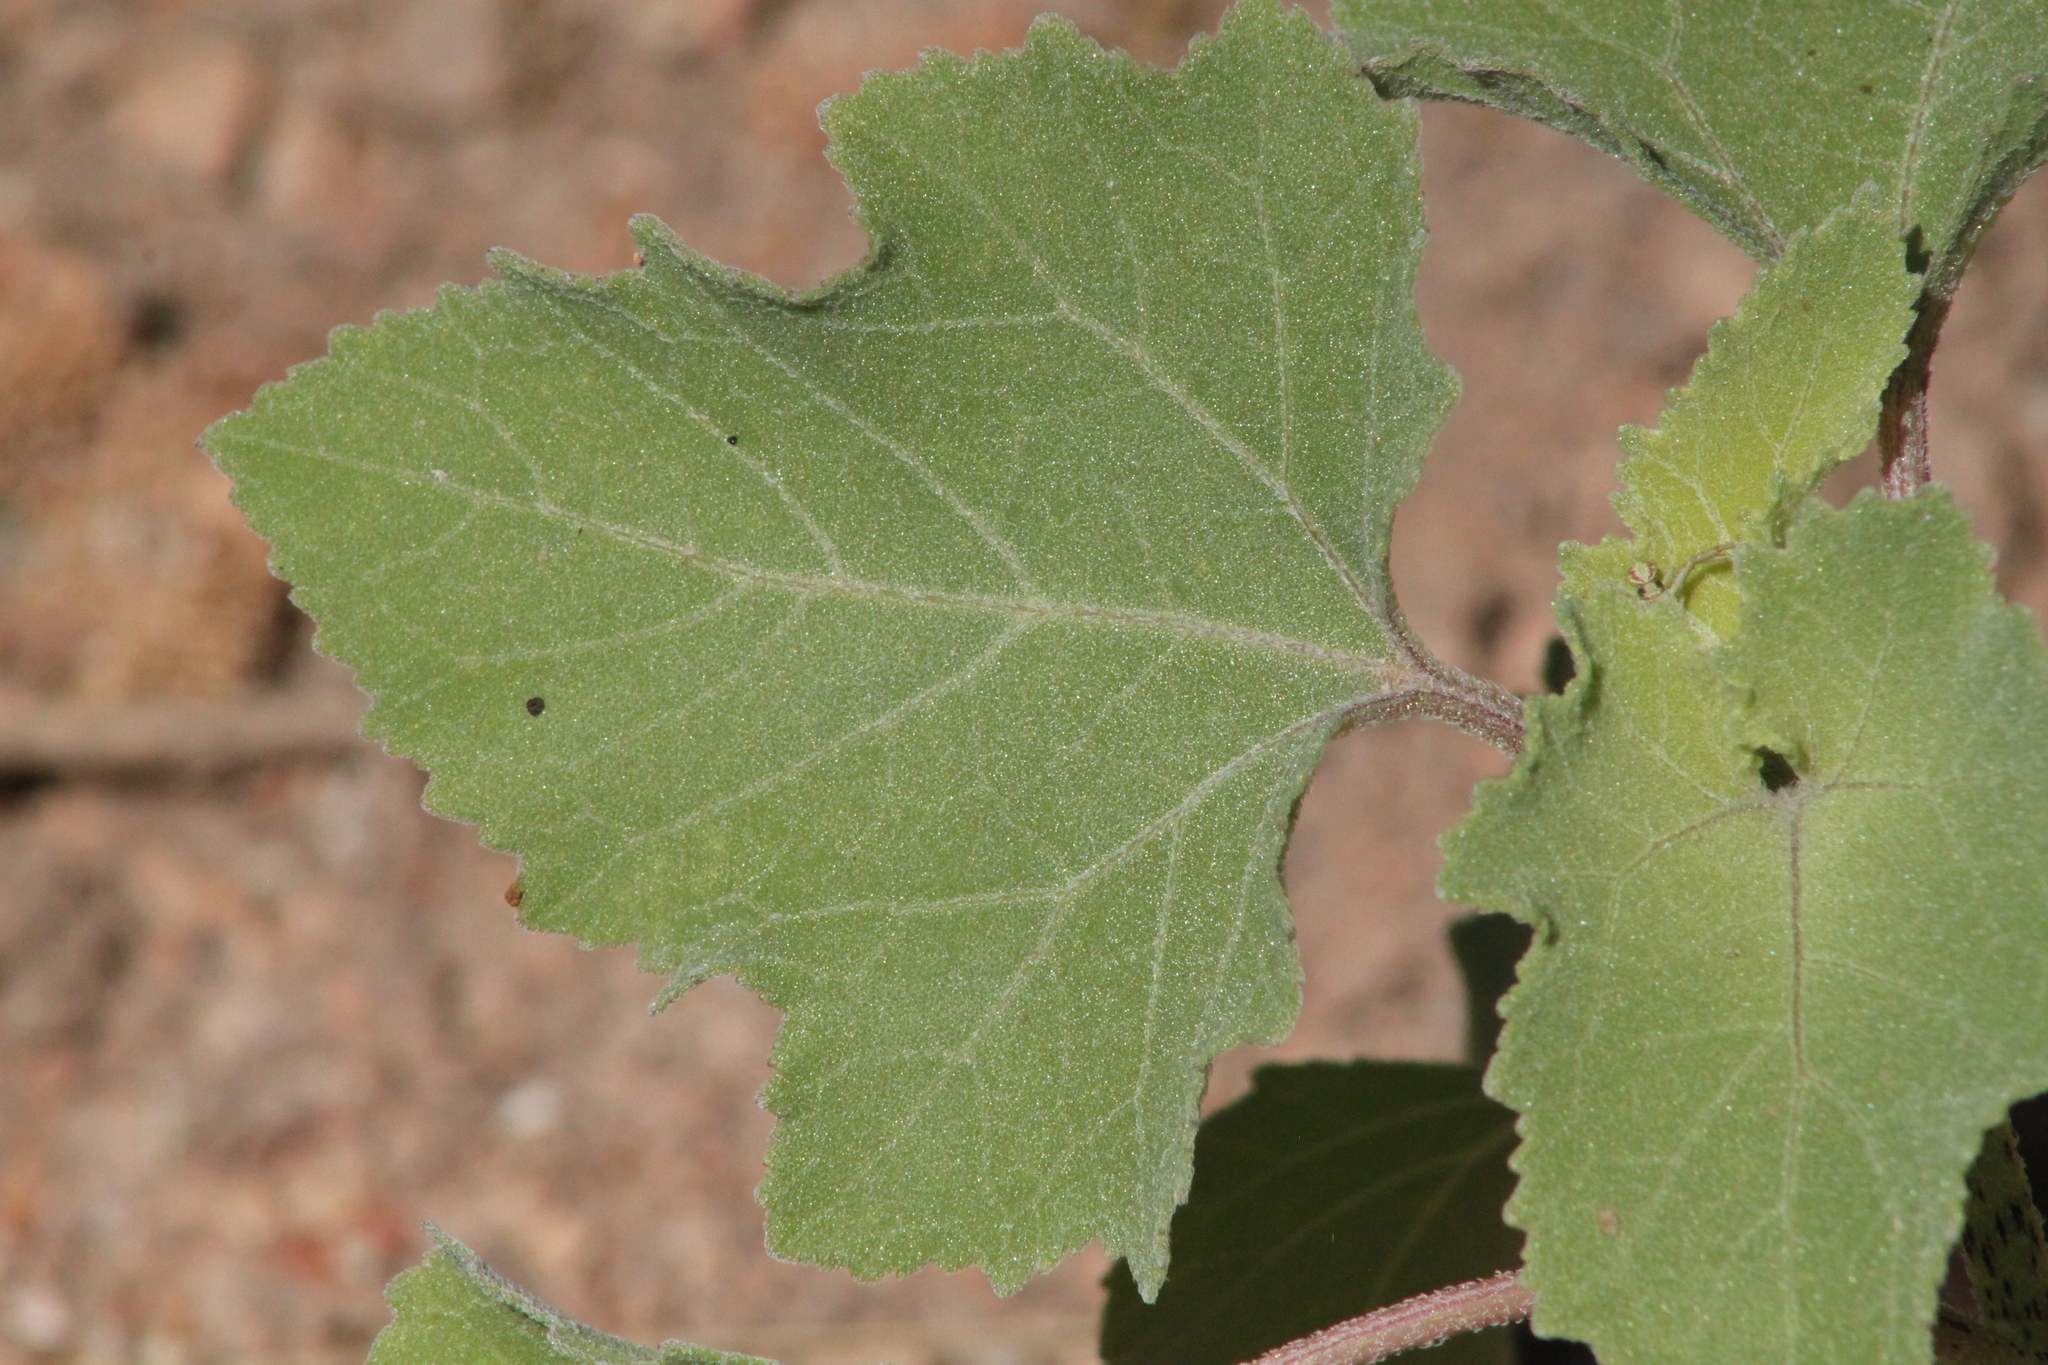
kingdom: Plantae
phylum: Tracheophyta
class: Magnoliopsida
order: Asterales
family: Asteraceae
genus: Xanthium
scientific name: Xanthium orientale
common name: Californian burr
